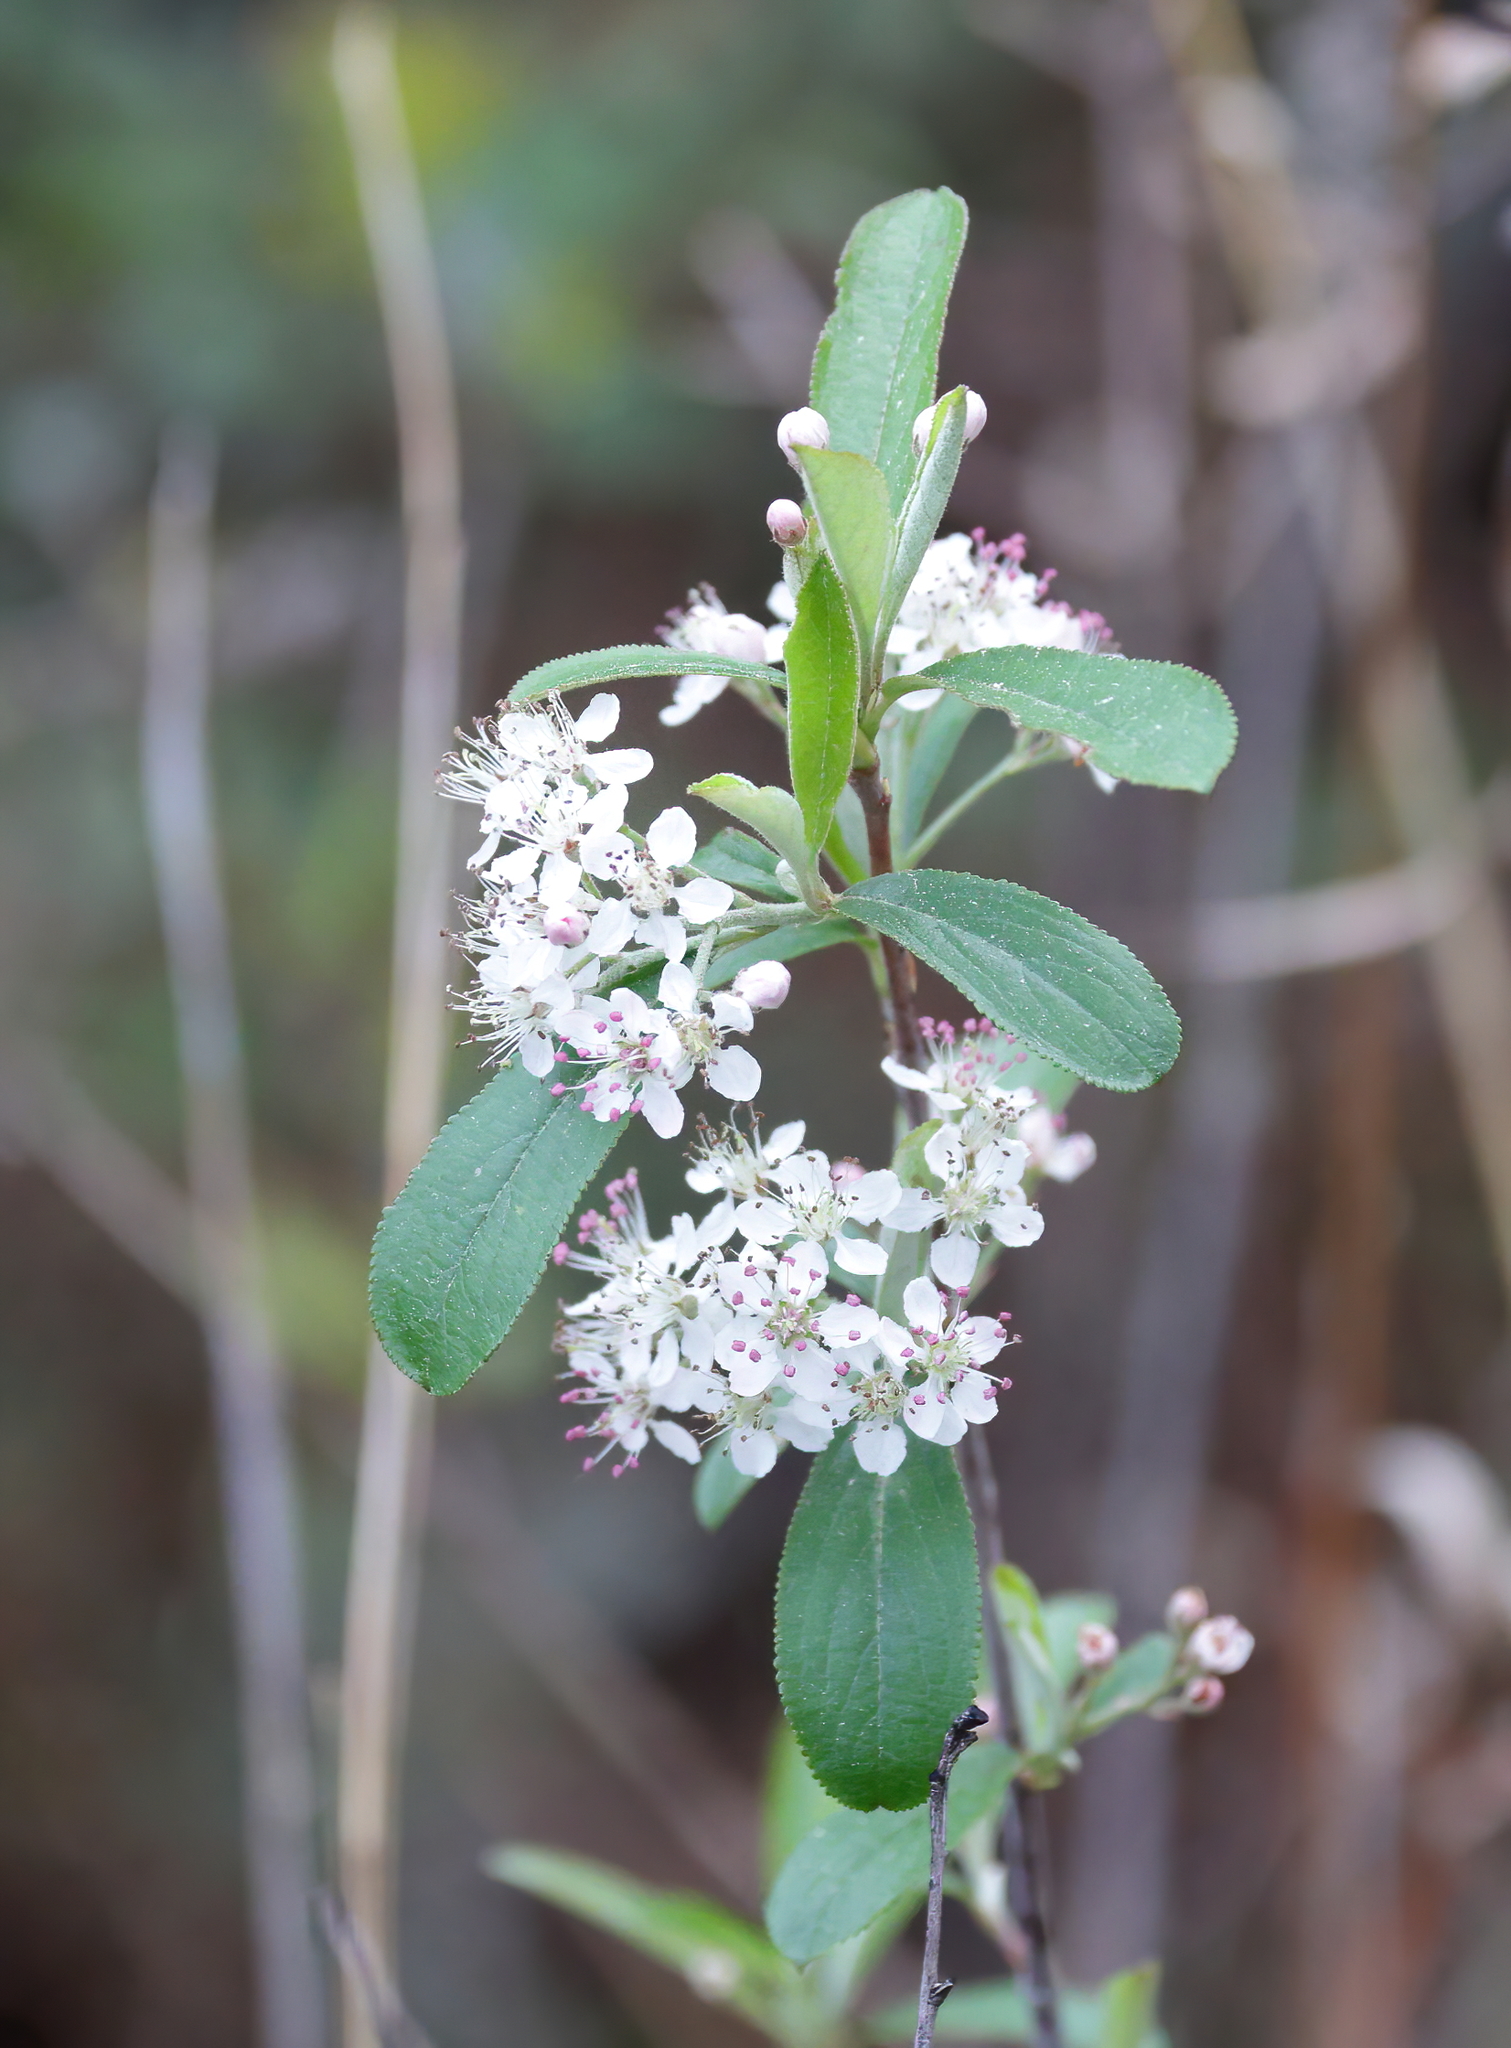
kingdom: Plantae
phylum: Tracheophyta
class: Magnoliopsida
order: Rosales
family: Rosaceae
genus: Aronia
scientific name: Aronia arbutifolia
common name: Red chokeberry
